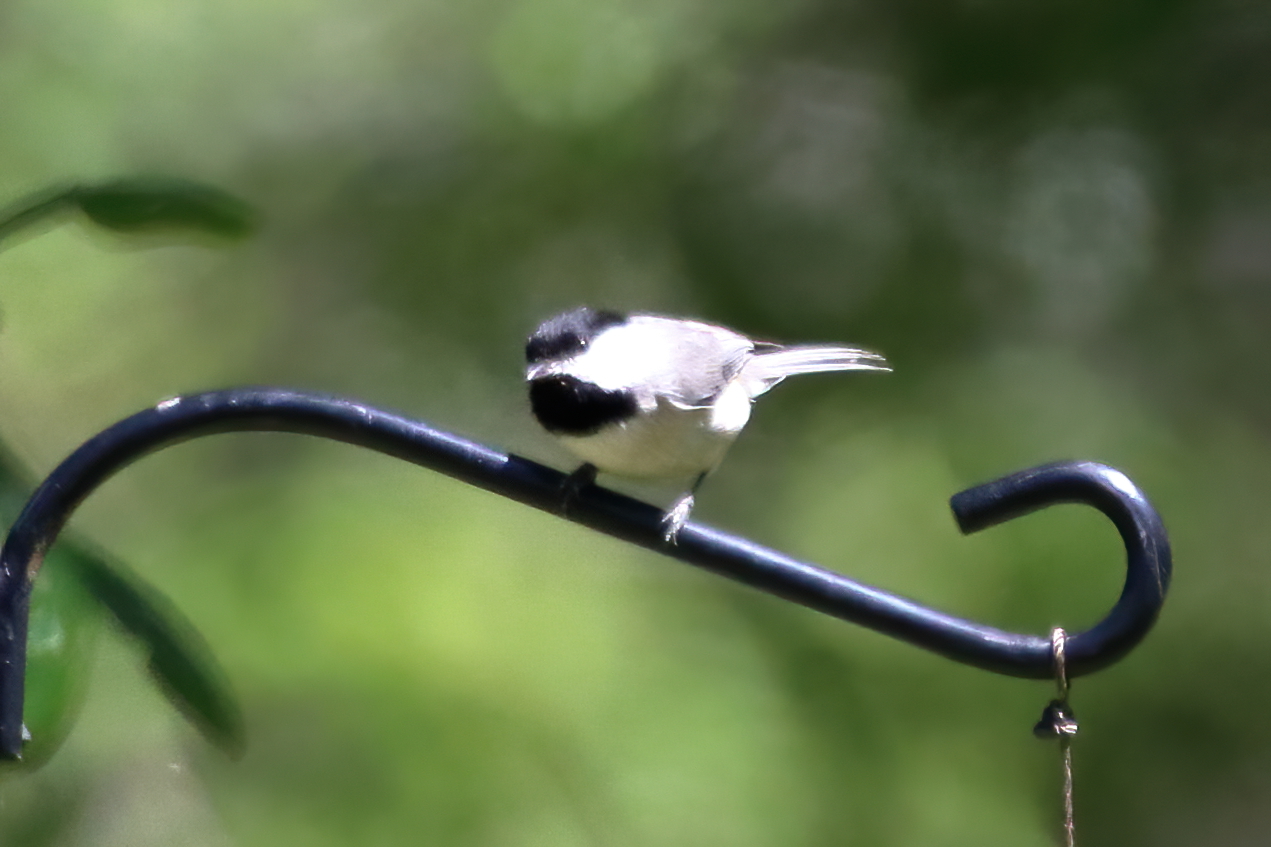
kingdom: Animalia
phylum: Chordata
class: Aves
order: Passeriformes
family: Paridae
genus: Poecile
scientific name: Poecile carolinensis
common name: Carolina chickadee
